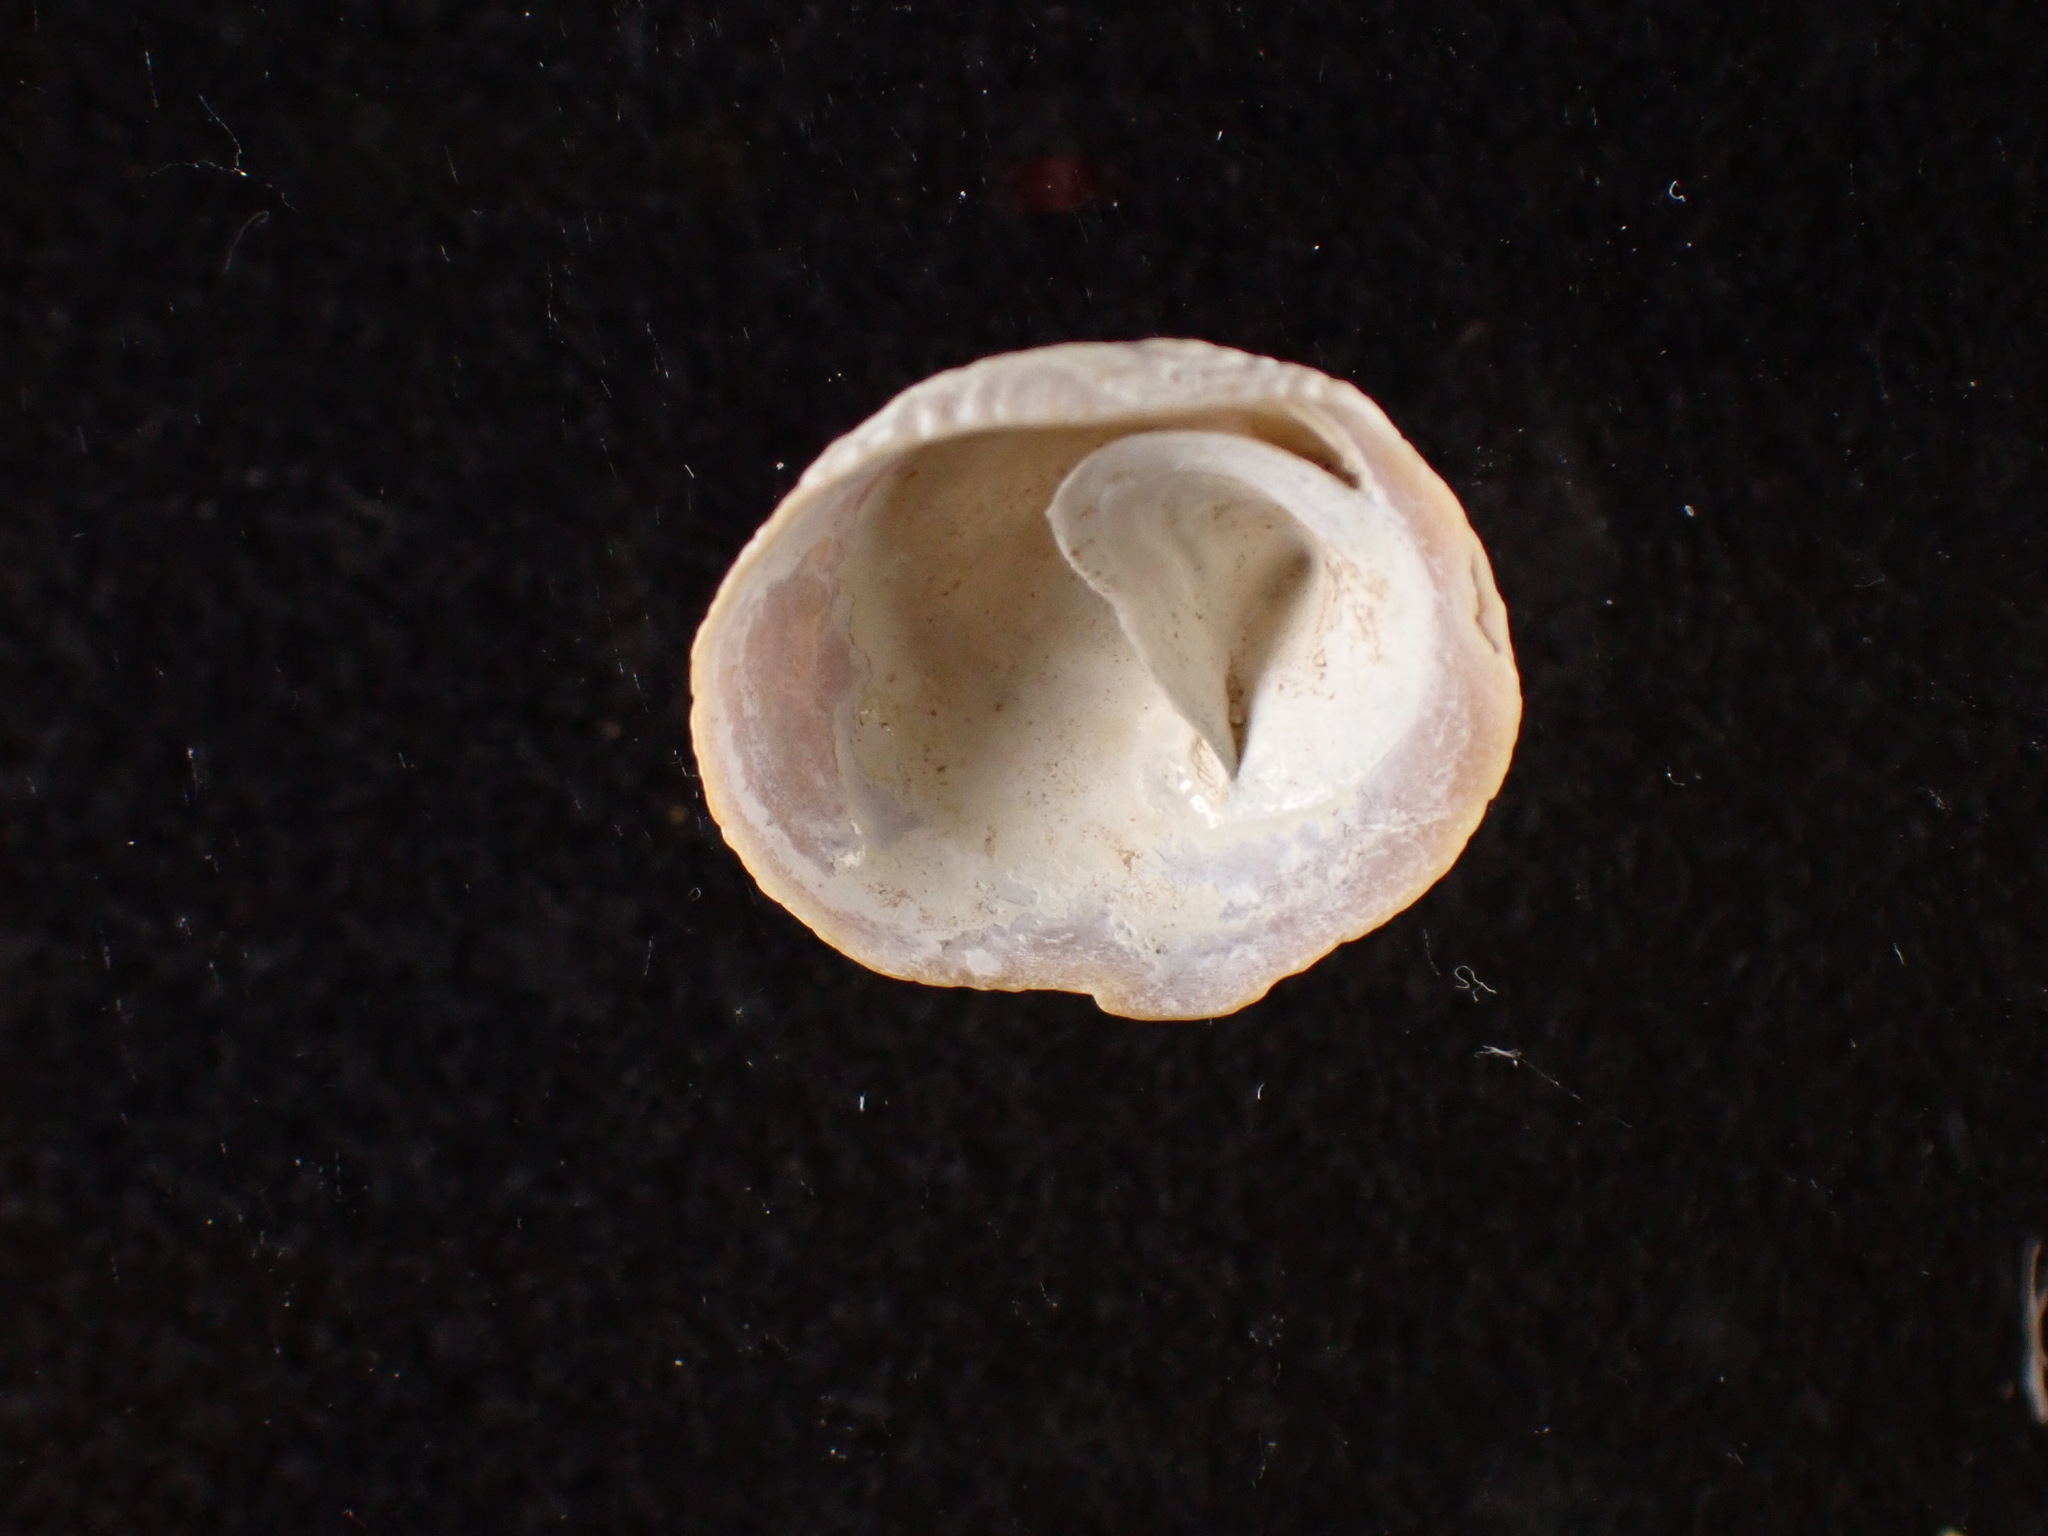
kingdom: Animalia
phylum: Mollusca
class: Gastropoda
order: Littorinimorpha
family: Calyptraeidae
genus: Crucibulum
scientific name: Crucibulum striatum
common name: Striate cup-and -saucer
